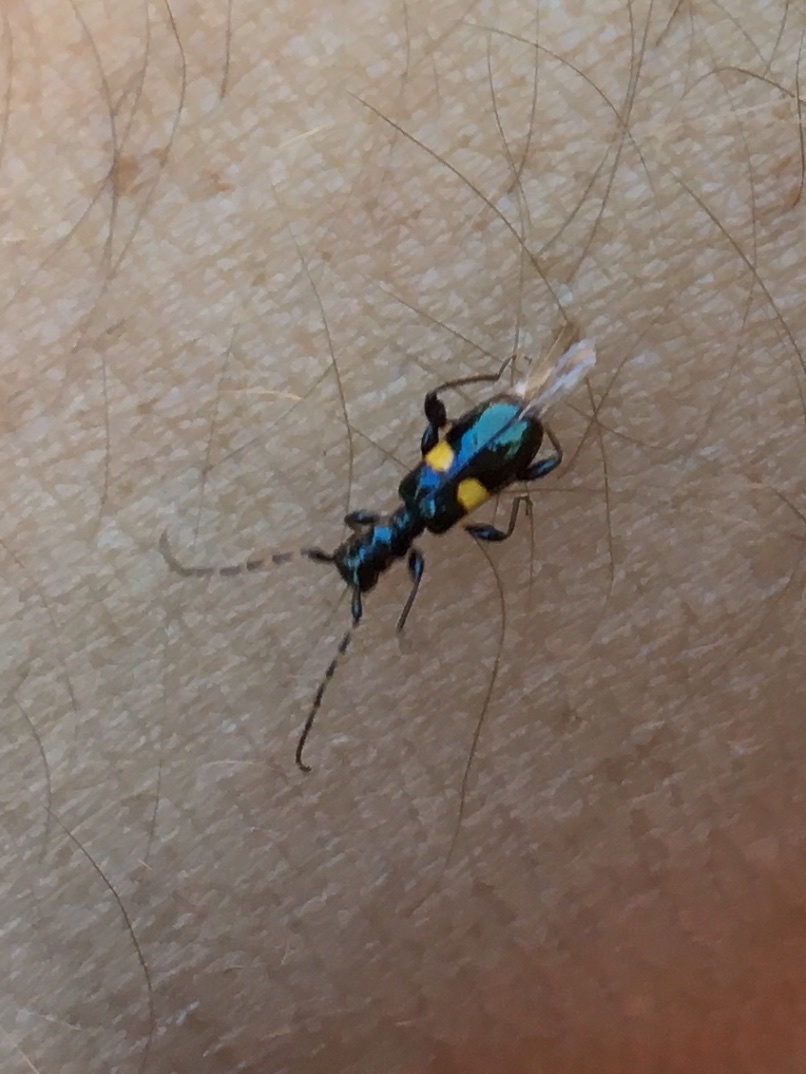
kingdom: Animalia
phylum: Arthropoda
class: Insecta
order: Coleoptera
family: Cerambycidae
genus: Zorion
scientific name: Zorion guttigerum
